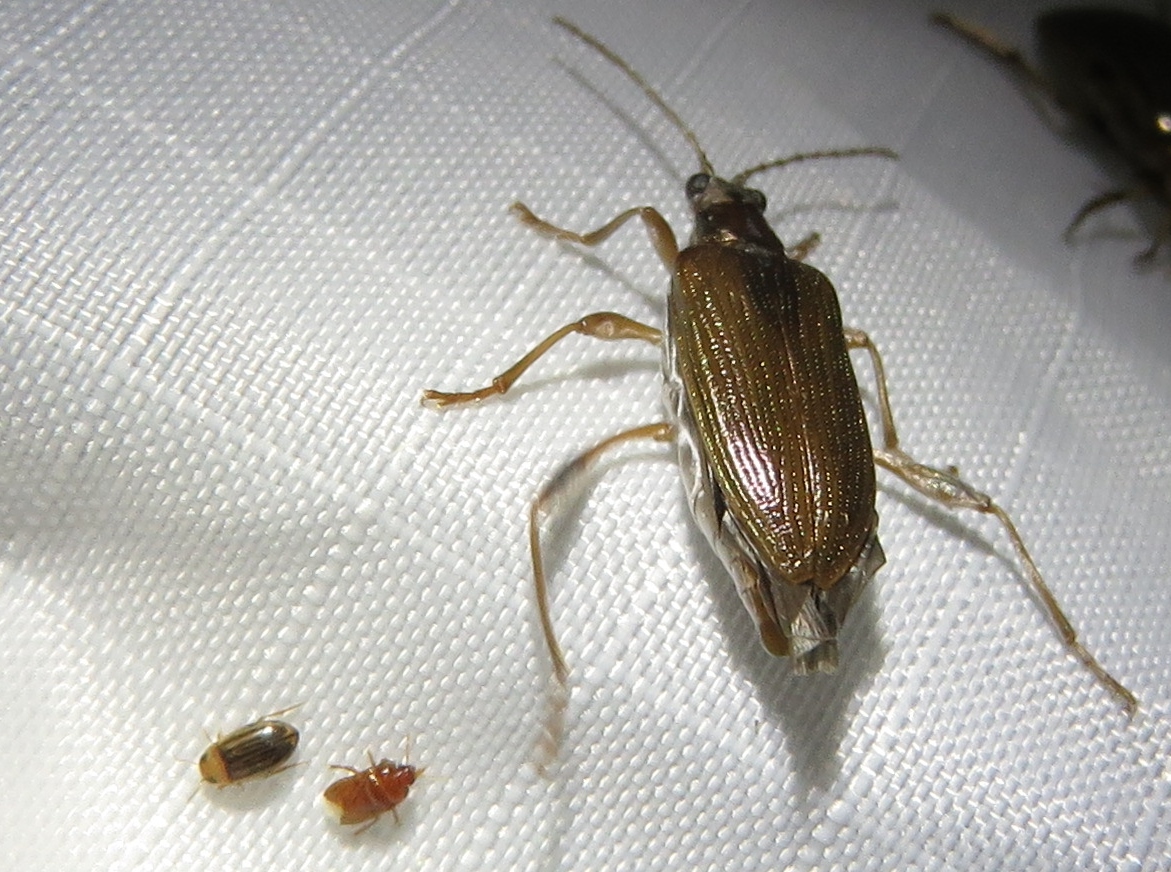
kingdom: Animalia
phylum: Arthropoda
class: Insecta
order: Coleoptera
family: Chrysomelidae
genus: Donacia
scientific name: Donacia hypoleuca
